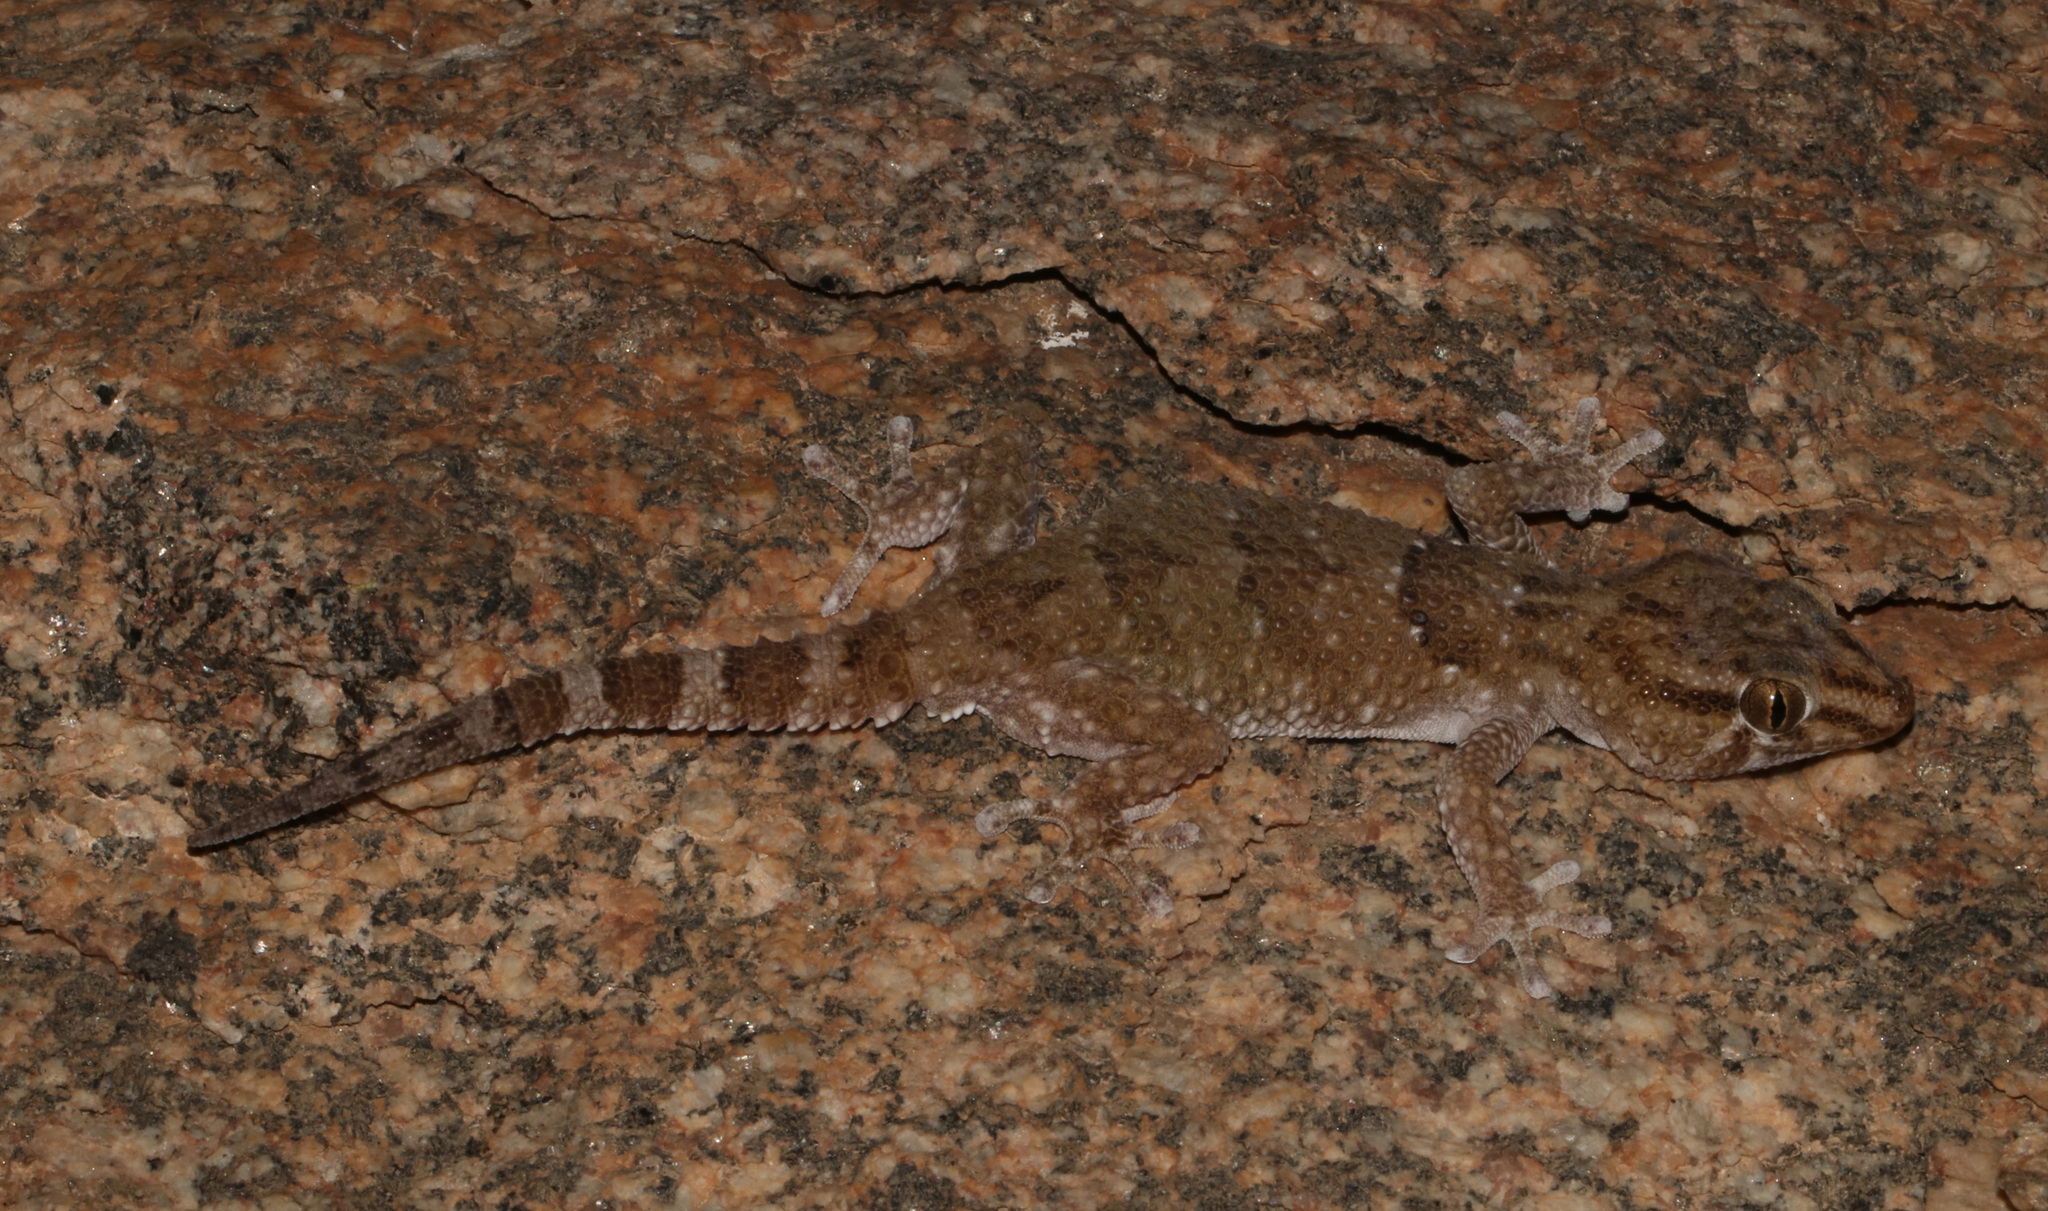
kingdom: Animalia
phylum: Chordata
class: Squamata
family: Gekkonidae
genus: Chondrodactylus
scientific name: Chondrodactylus laevigatus
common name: Fischer's thick-toed gecko
